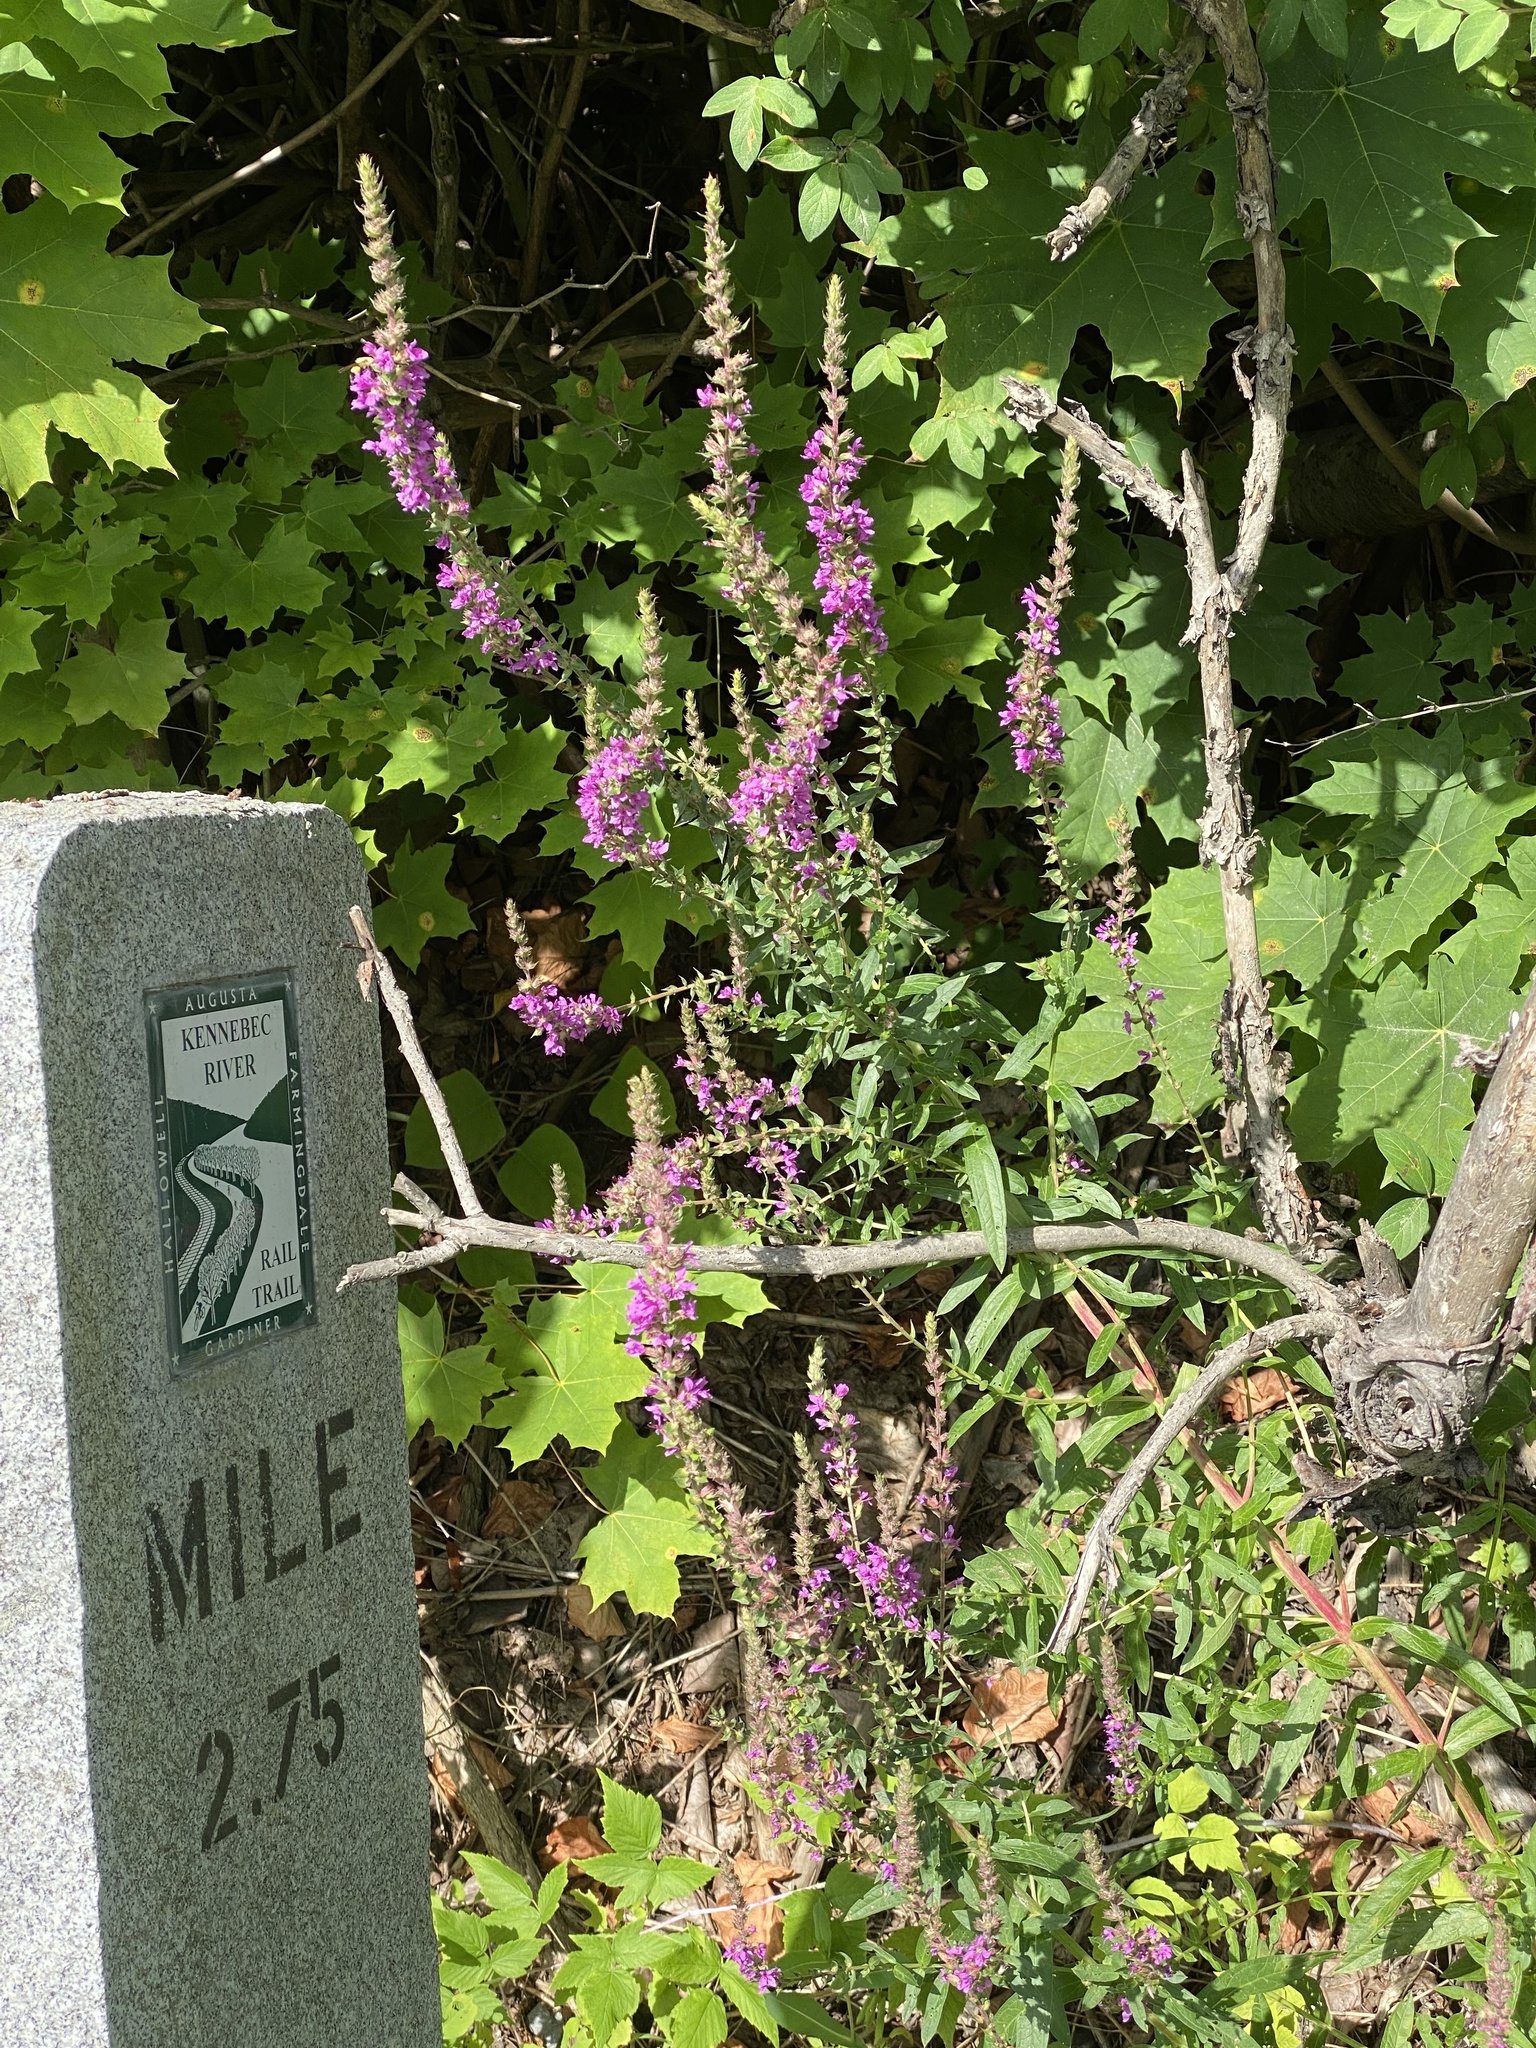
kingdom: Plantae
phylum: Tracheophyta
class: Magnoliopsida
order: Myrtales
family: Lythraceae
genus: Lythrum
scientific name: Lythrum salicaria
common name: Purple loosestrife
